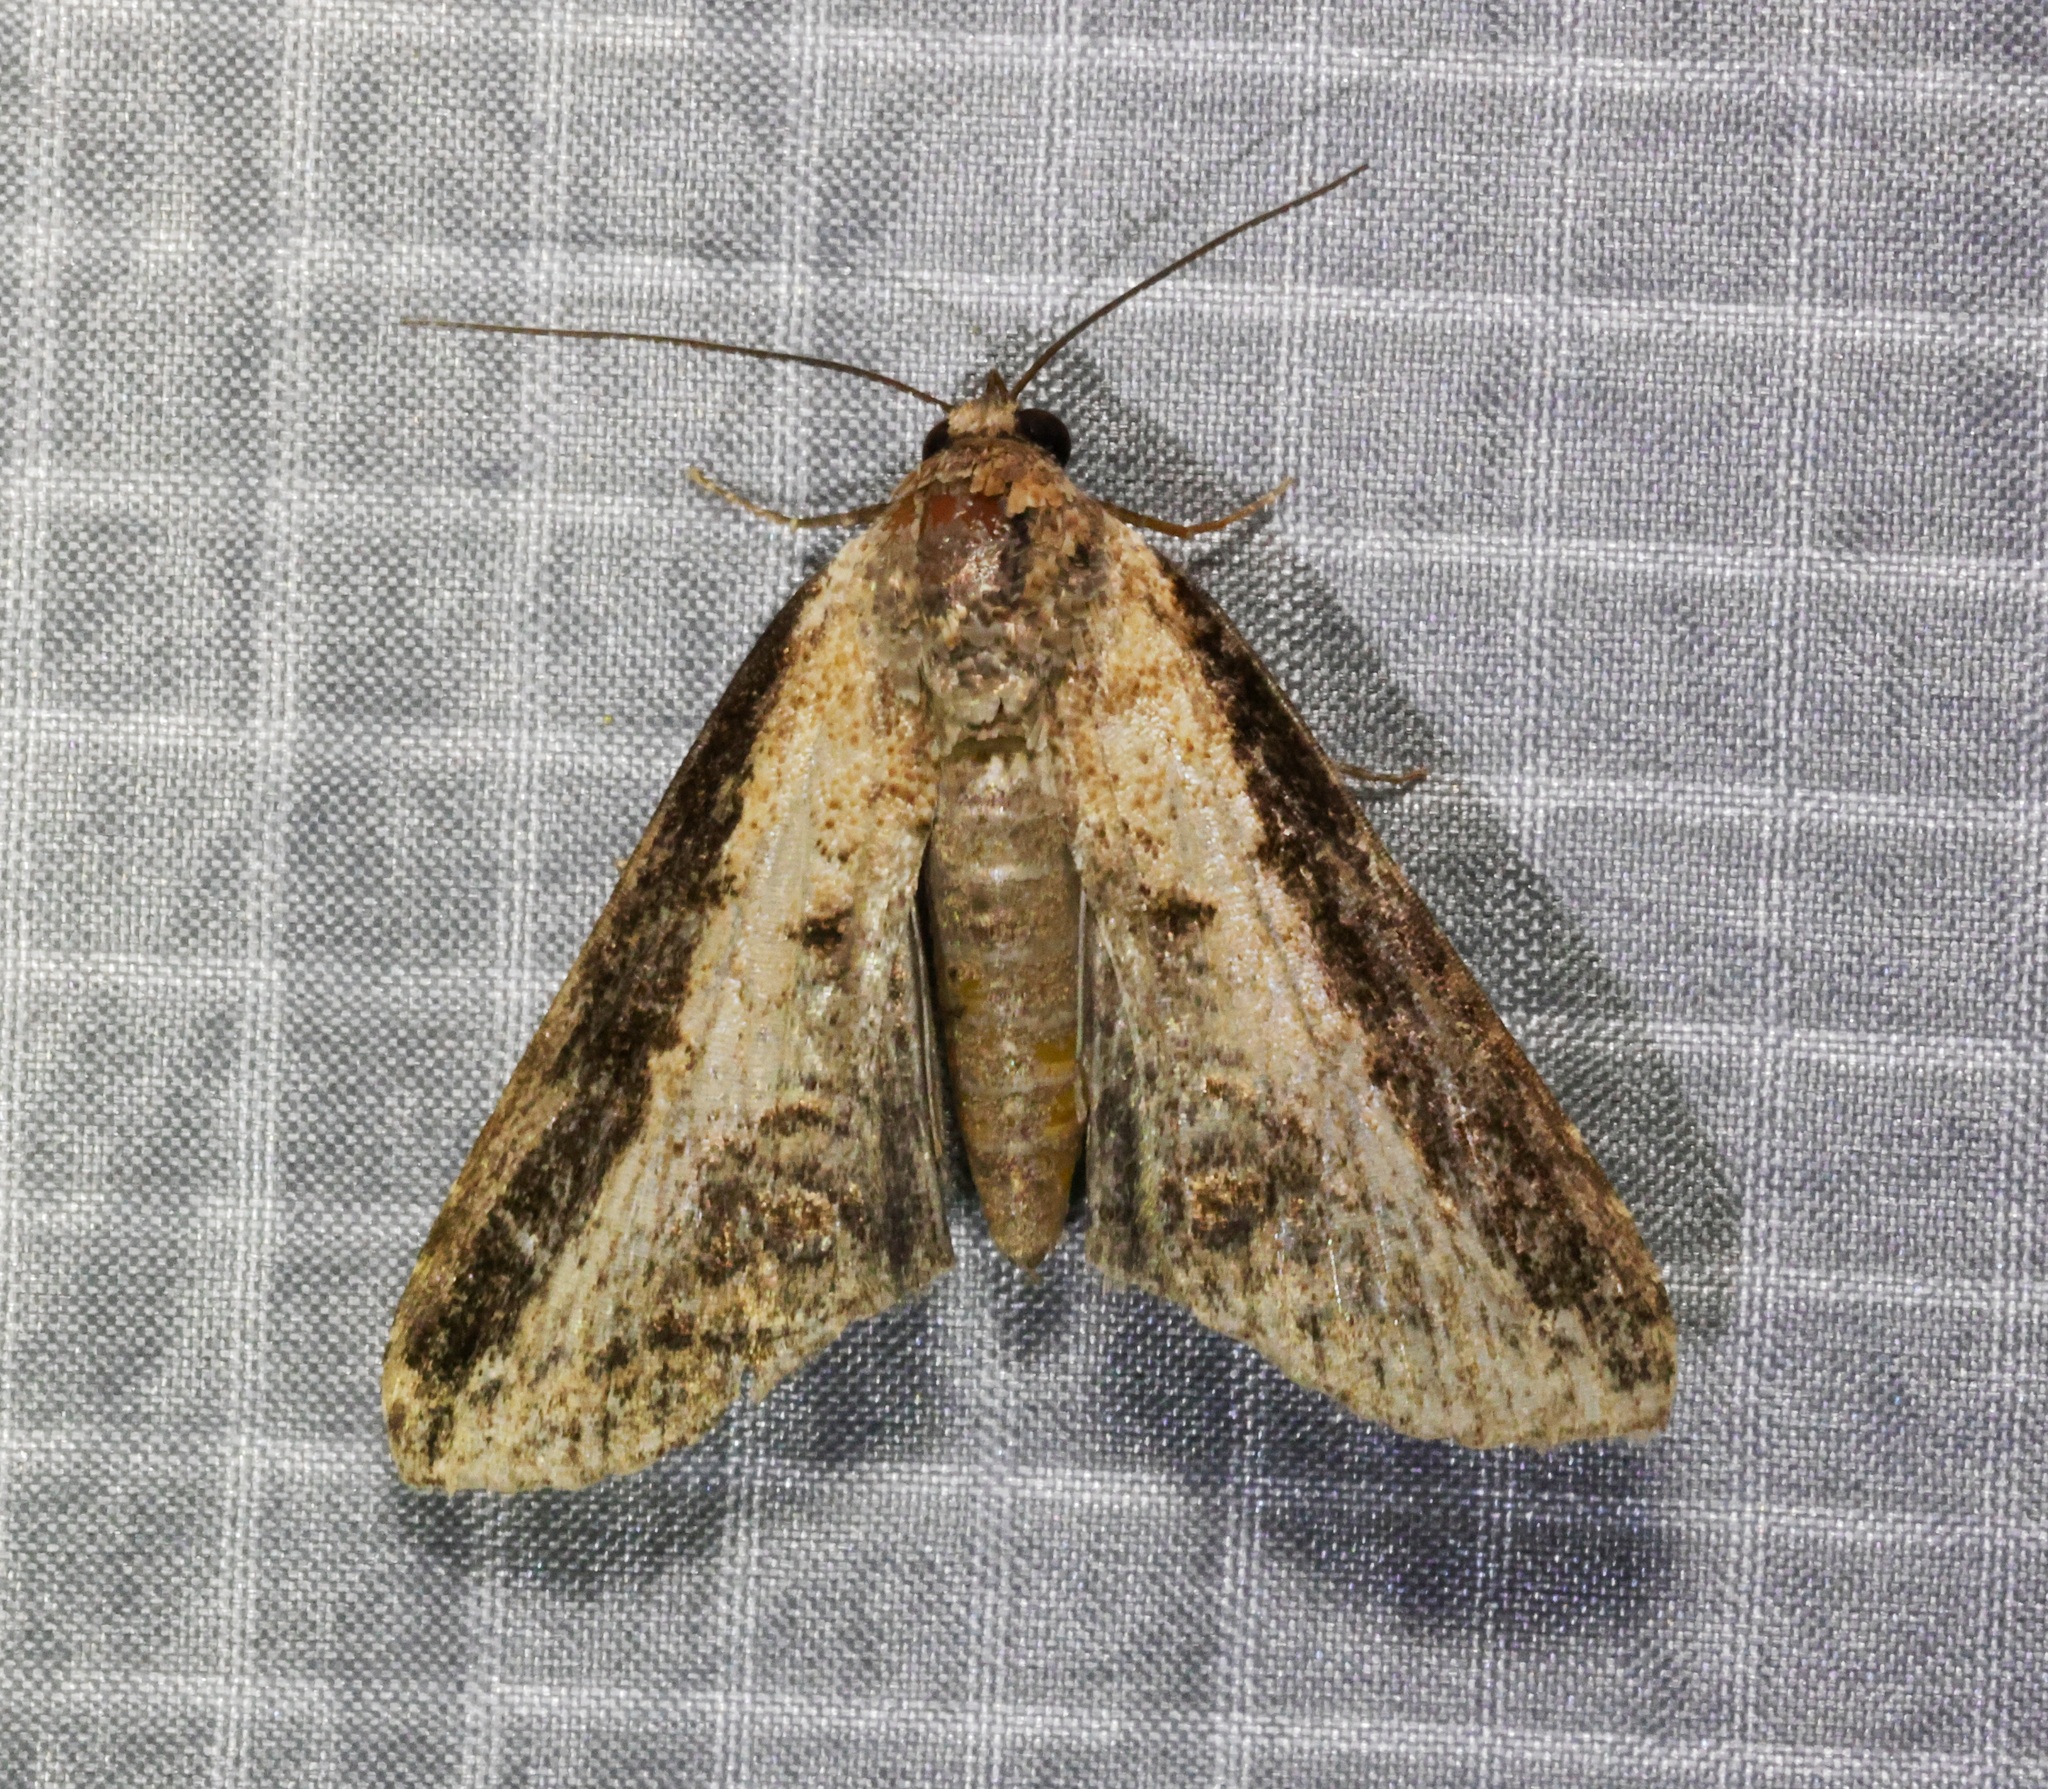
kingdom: Animalia
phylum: Arthropoda
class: Insecta
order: Lepidoptera
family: Euteliidae
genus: Lophoptera
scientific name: Lophoptera squammigera
